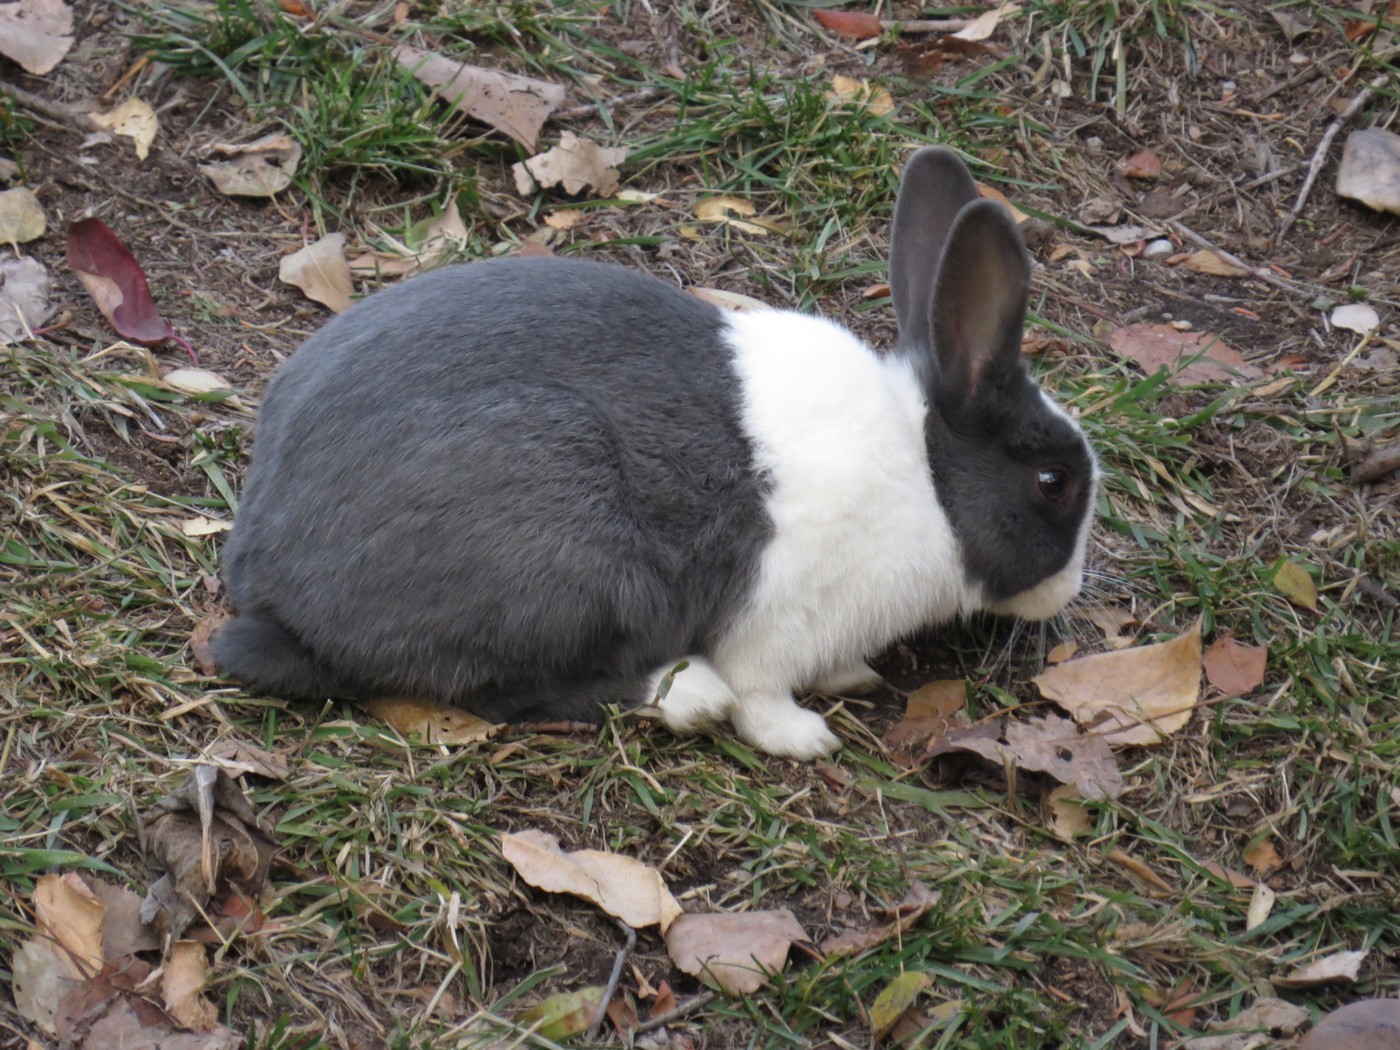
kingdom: Animalia
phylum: Chordata
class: Mammalia
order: Lagomorpha
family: Leporidae
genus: Oryctolagus
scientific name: Oryctolagus cuniculus
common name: European rabbit
